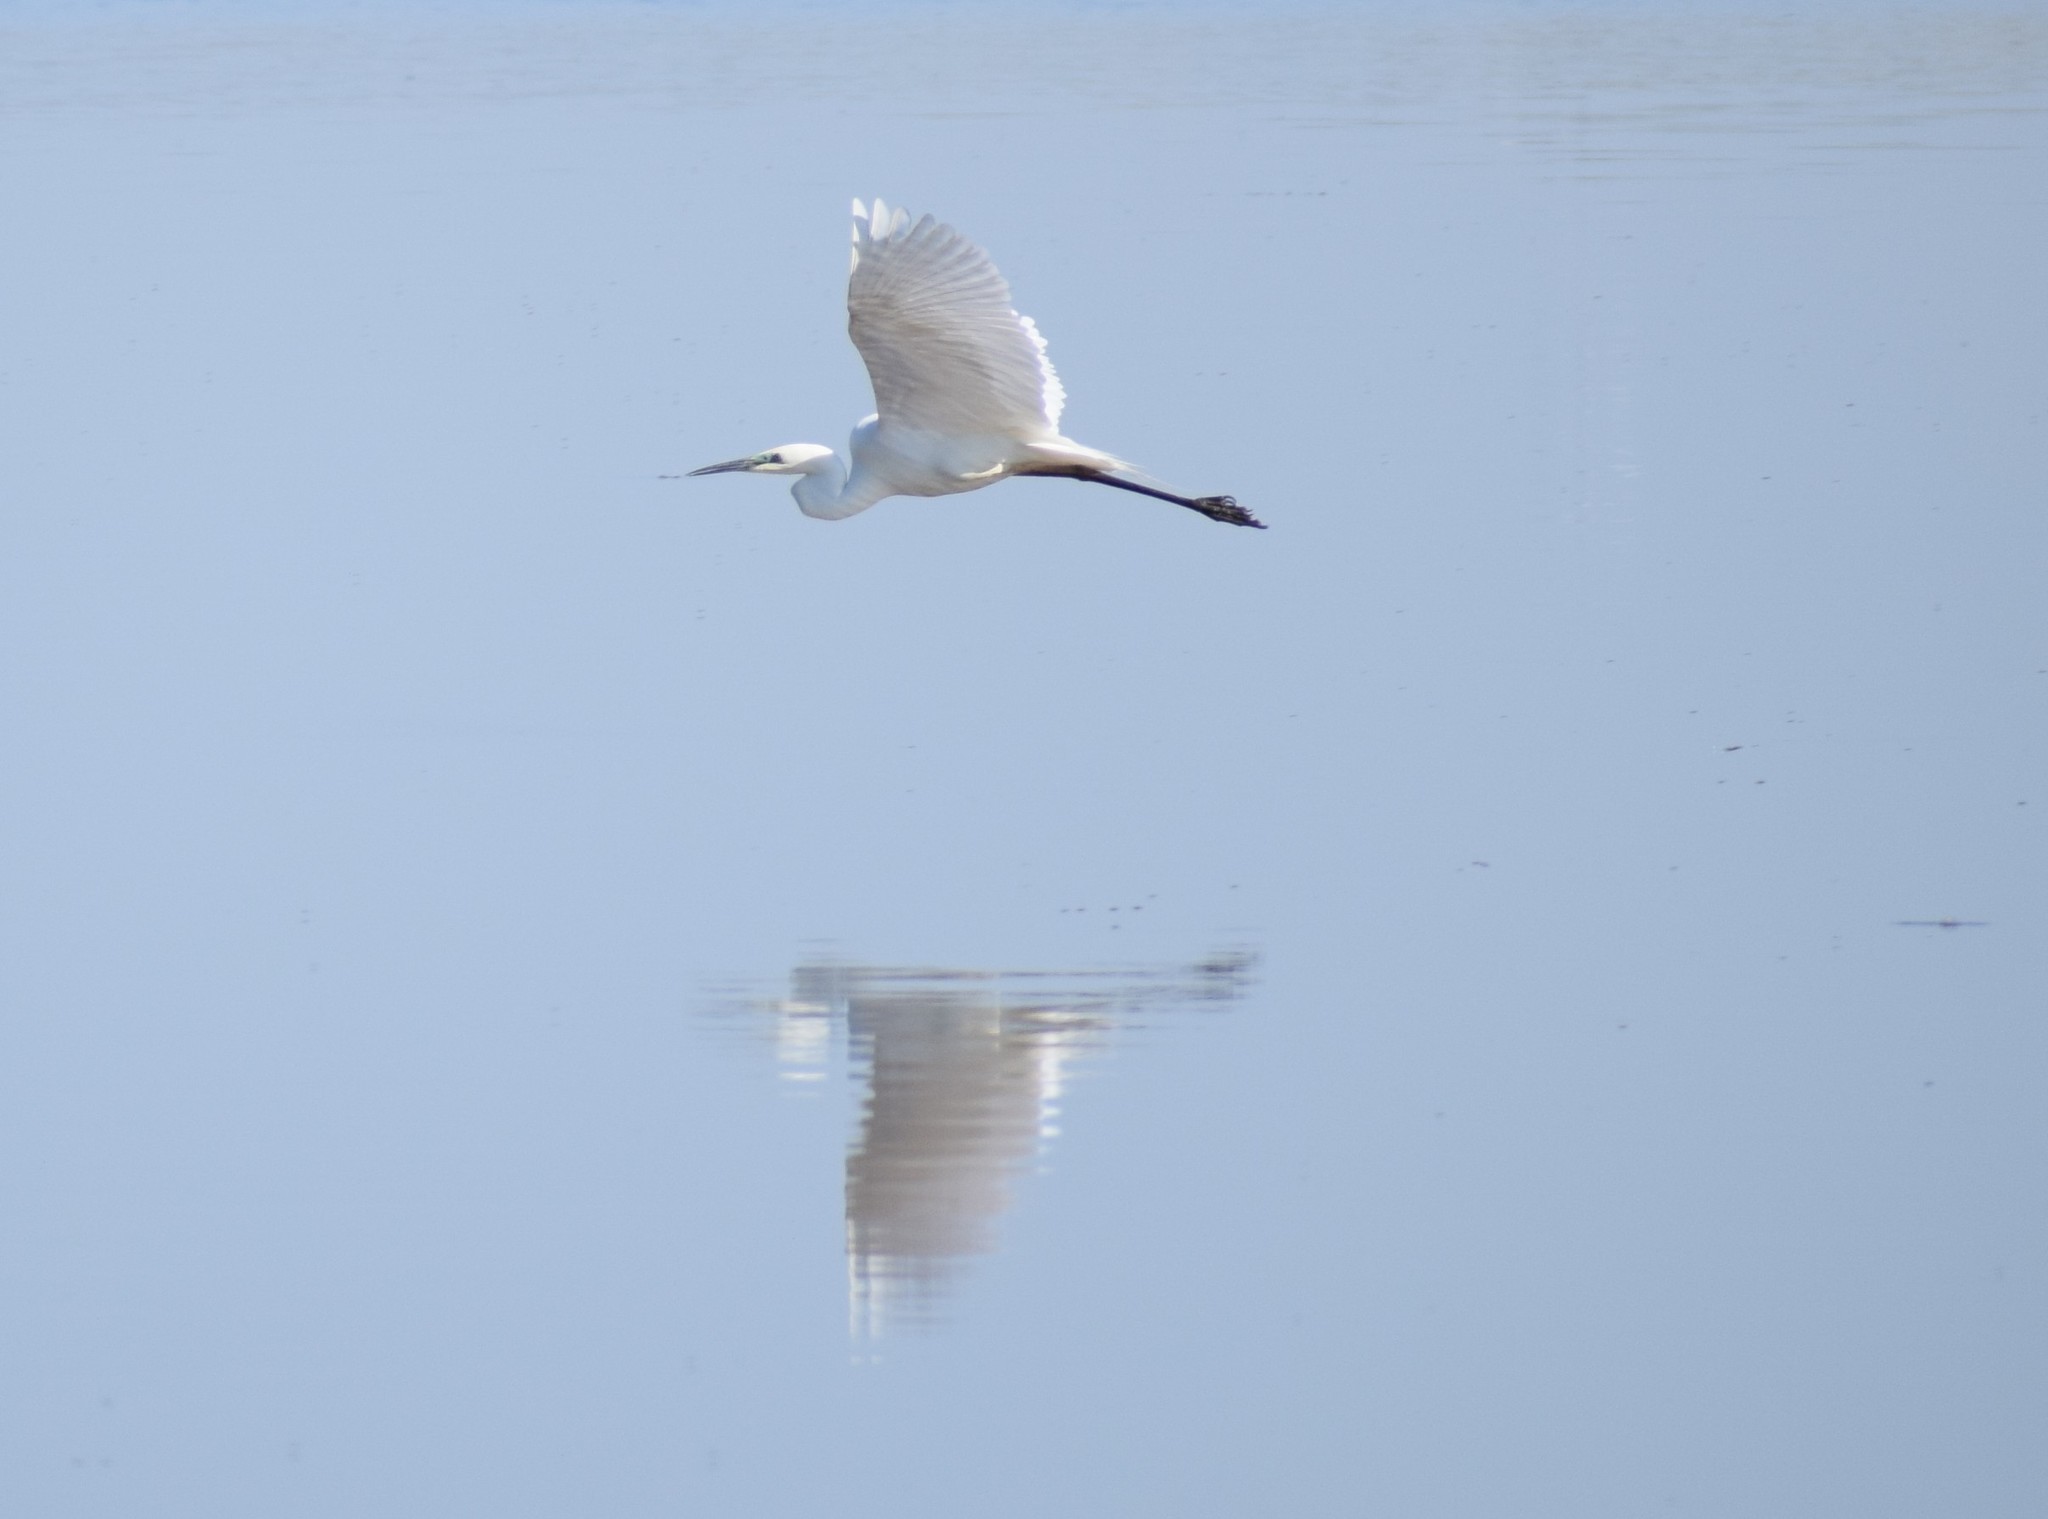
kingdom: Animalia
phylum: Chordata
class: Aves
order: Pelecaniformes
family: Ardeidae
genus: Ardea
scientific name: Ardea alba
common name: Great egret
